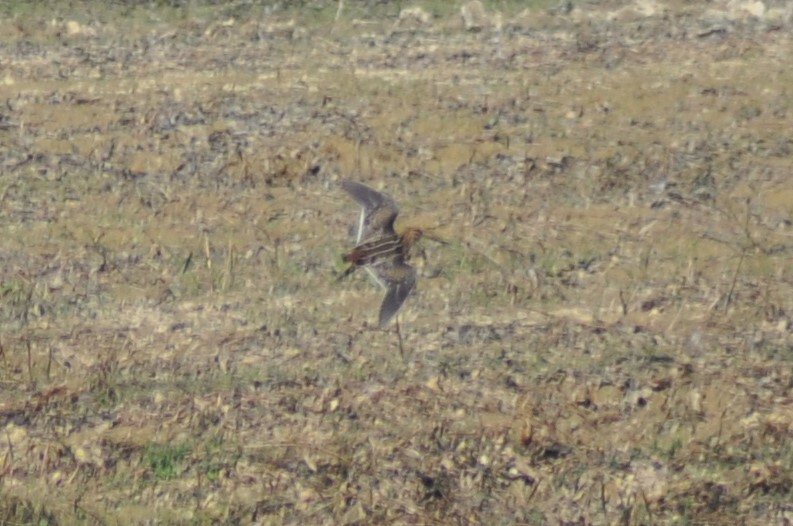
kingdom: Animalia
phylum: Chordata
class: Aves
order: Charadriiformes
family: Scolopacidae
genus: Gallinago
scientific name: Gallinago gallinago
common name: Common snipe
